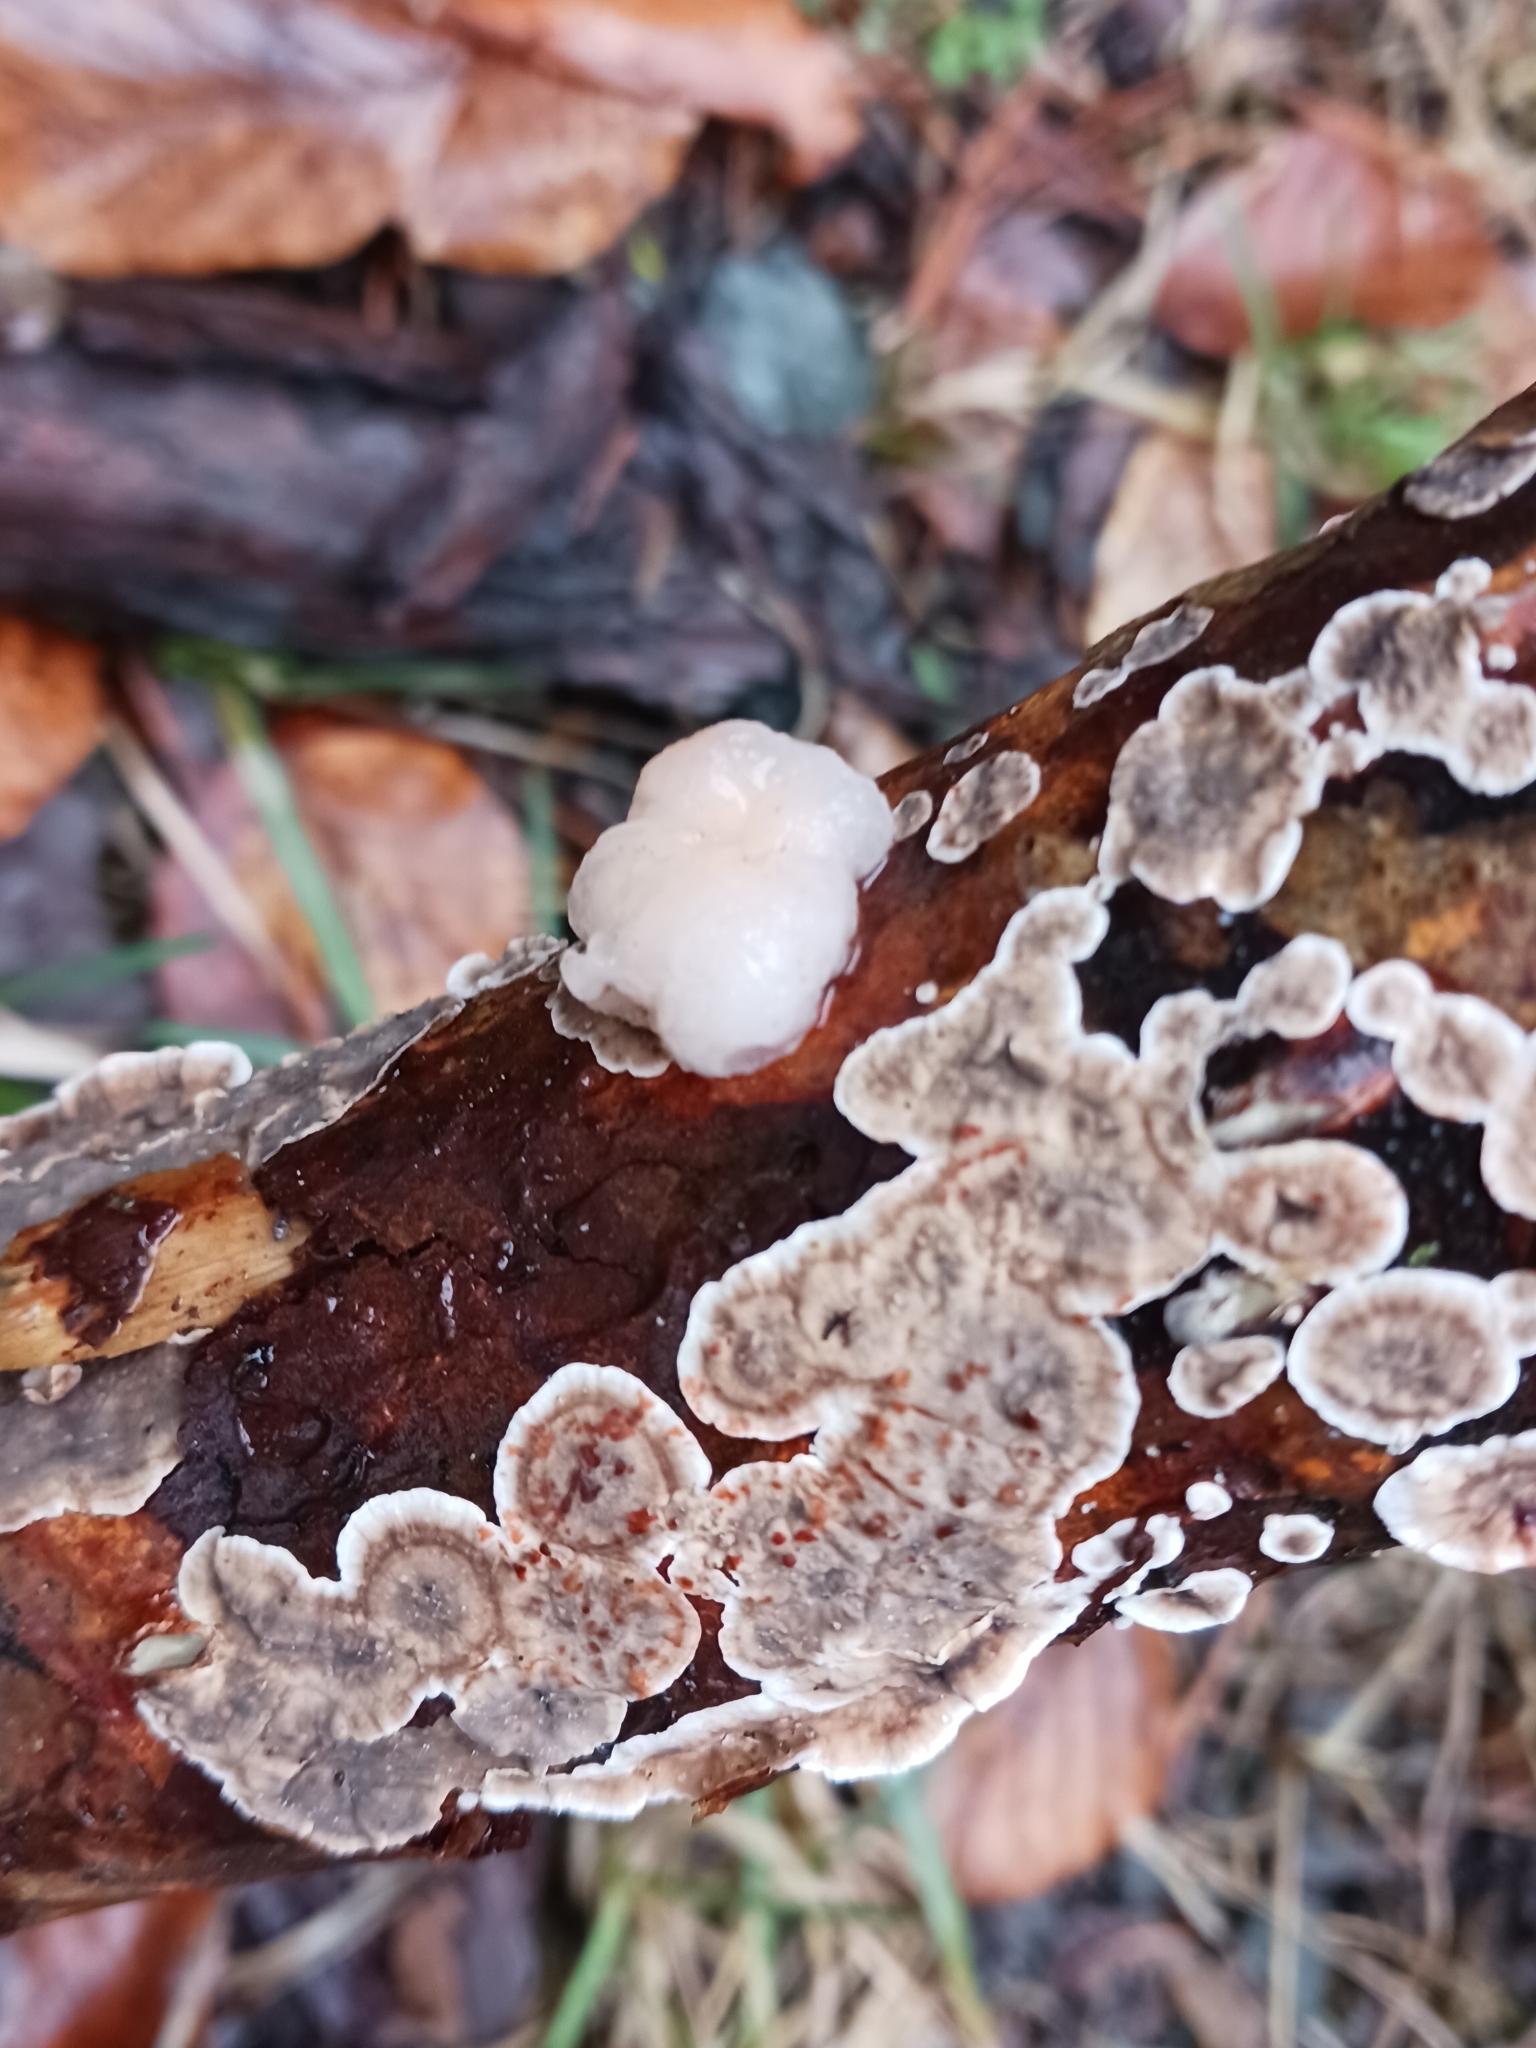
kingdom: Fungi
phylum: Basidiomycota
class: Tremellomycetes
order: Tremellales
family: Naemateliaceae
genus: Naematelia
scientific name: Naematelia encephala
